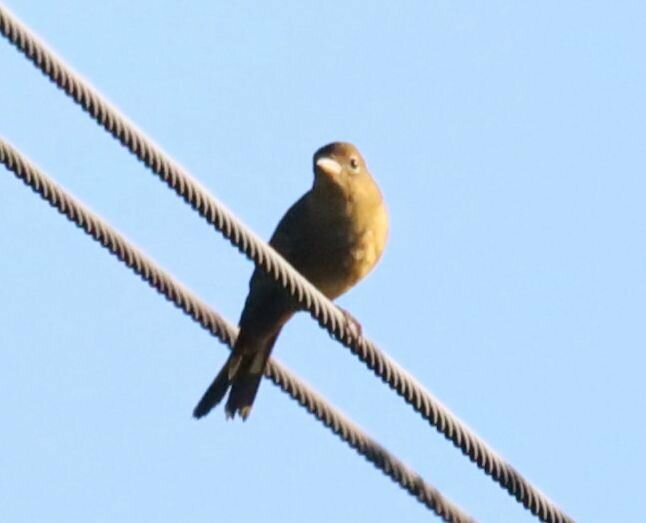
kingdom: Animalia
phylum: Chordata
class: Aves
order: Passeriformes
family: Cardinalidae
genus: Piranga
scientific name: Piranga rubra
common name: Summer tanager
